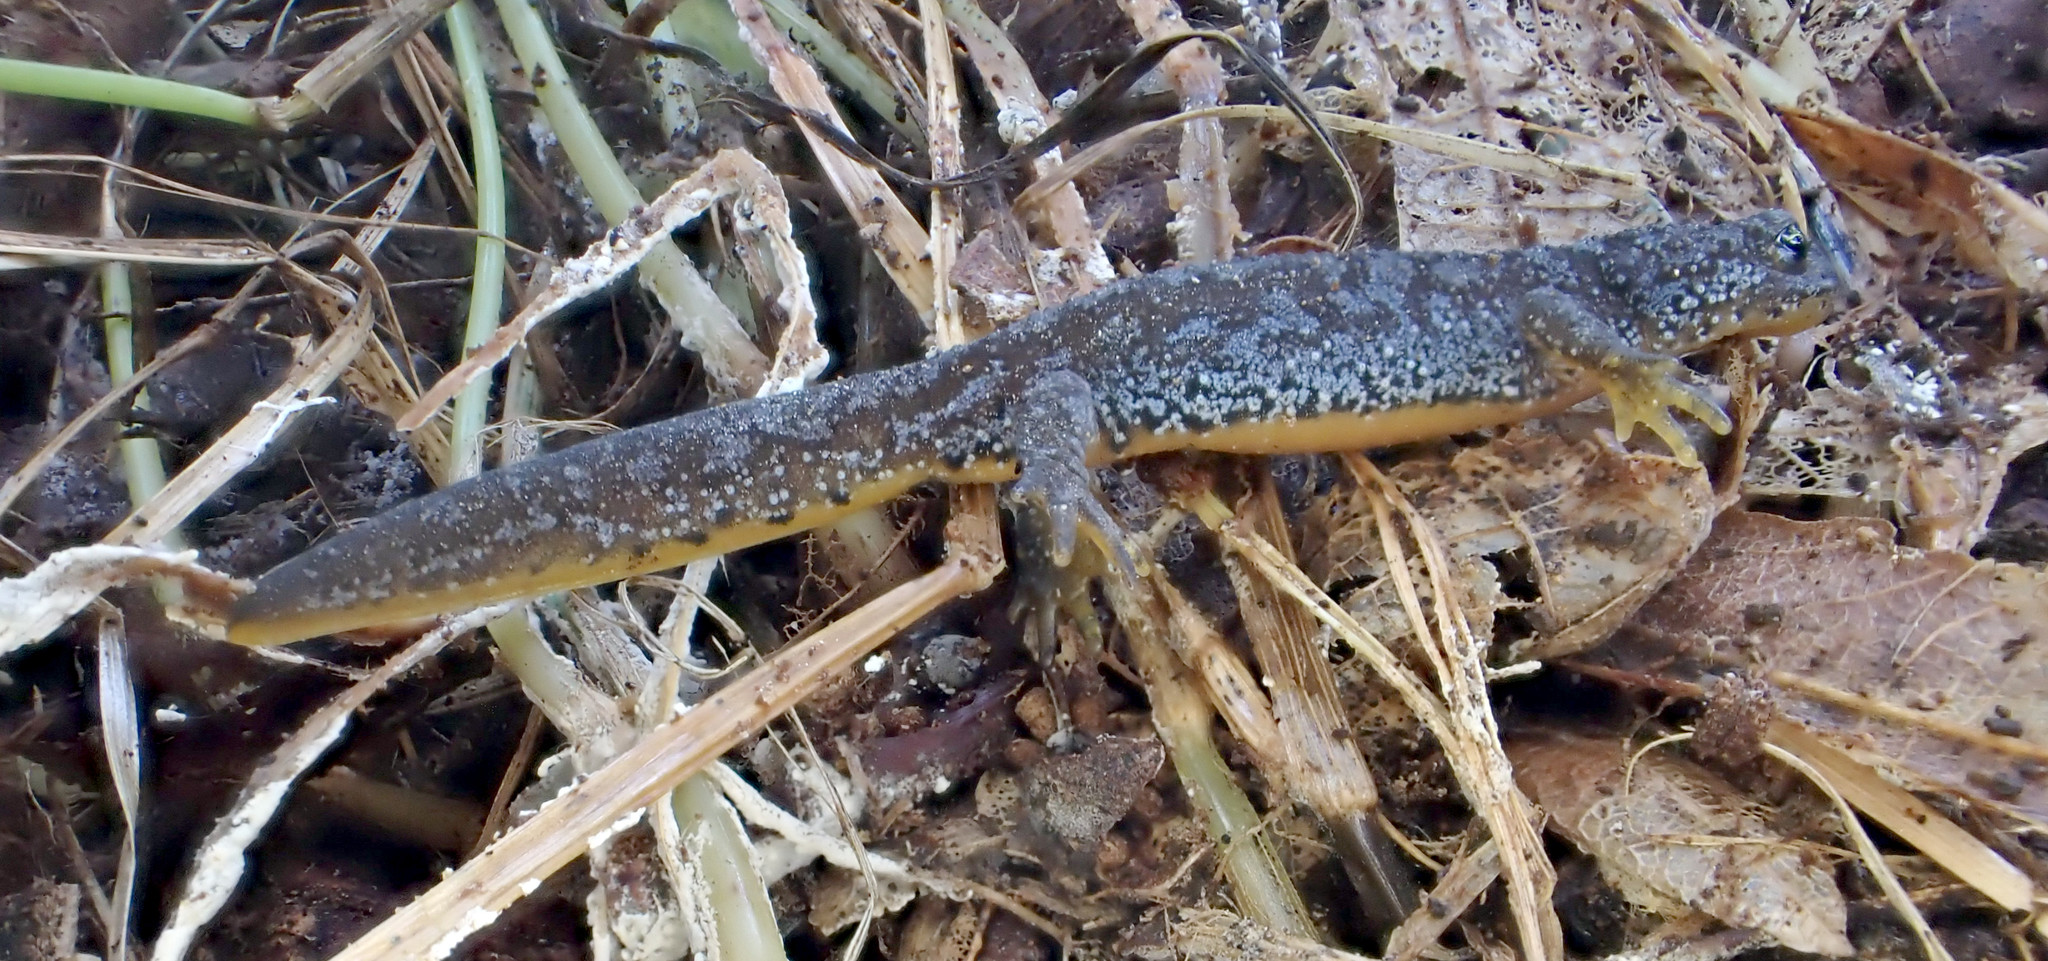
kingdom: Animalia
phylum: Chordata
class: Amphibia
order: Caudata
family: Salamandridae
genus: Ichthyosaura
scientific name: Ichthyosaura alpestris
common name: Alpine newt
